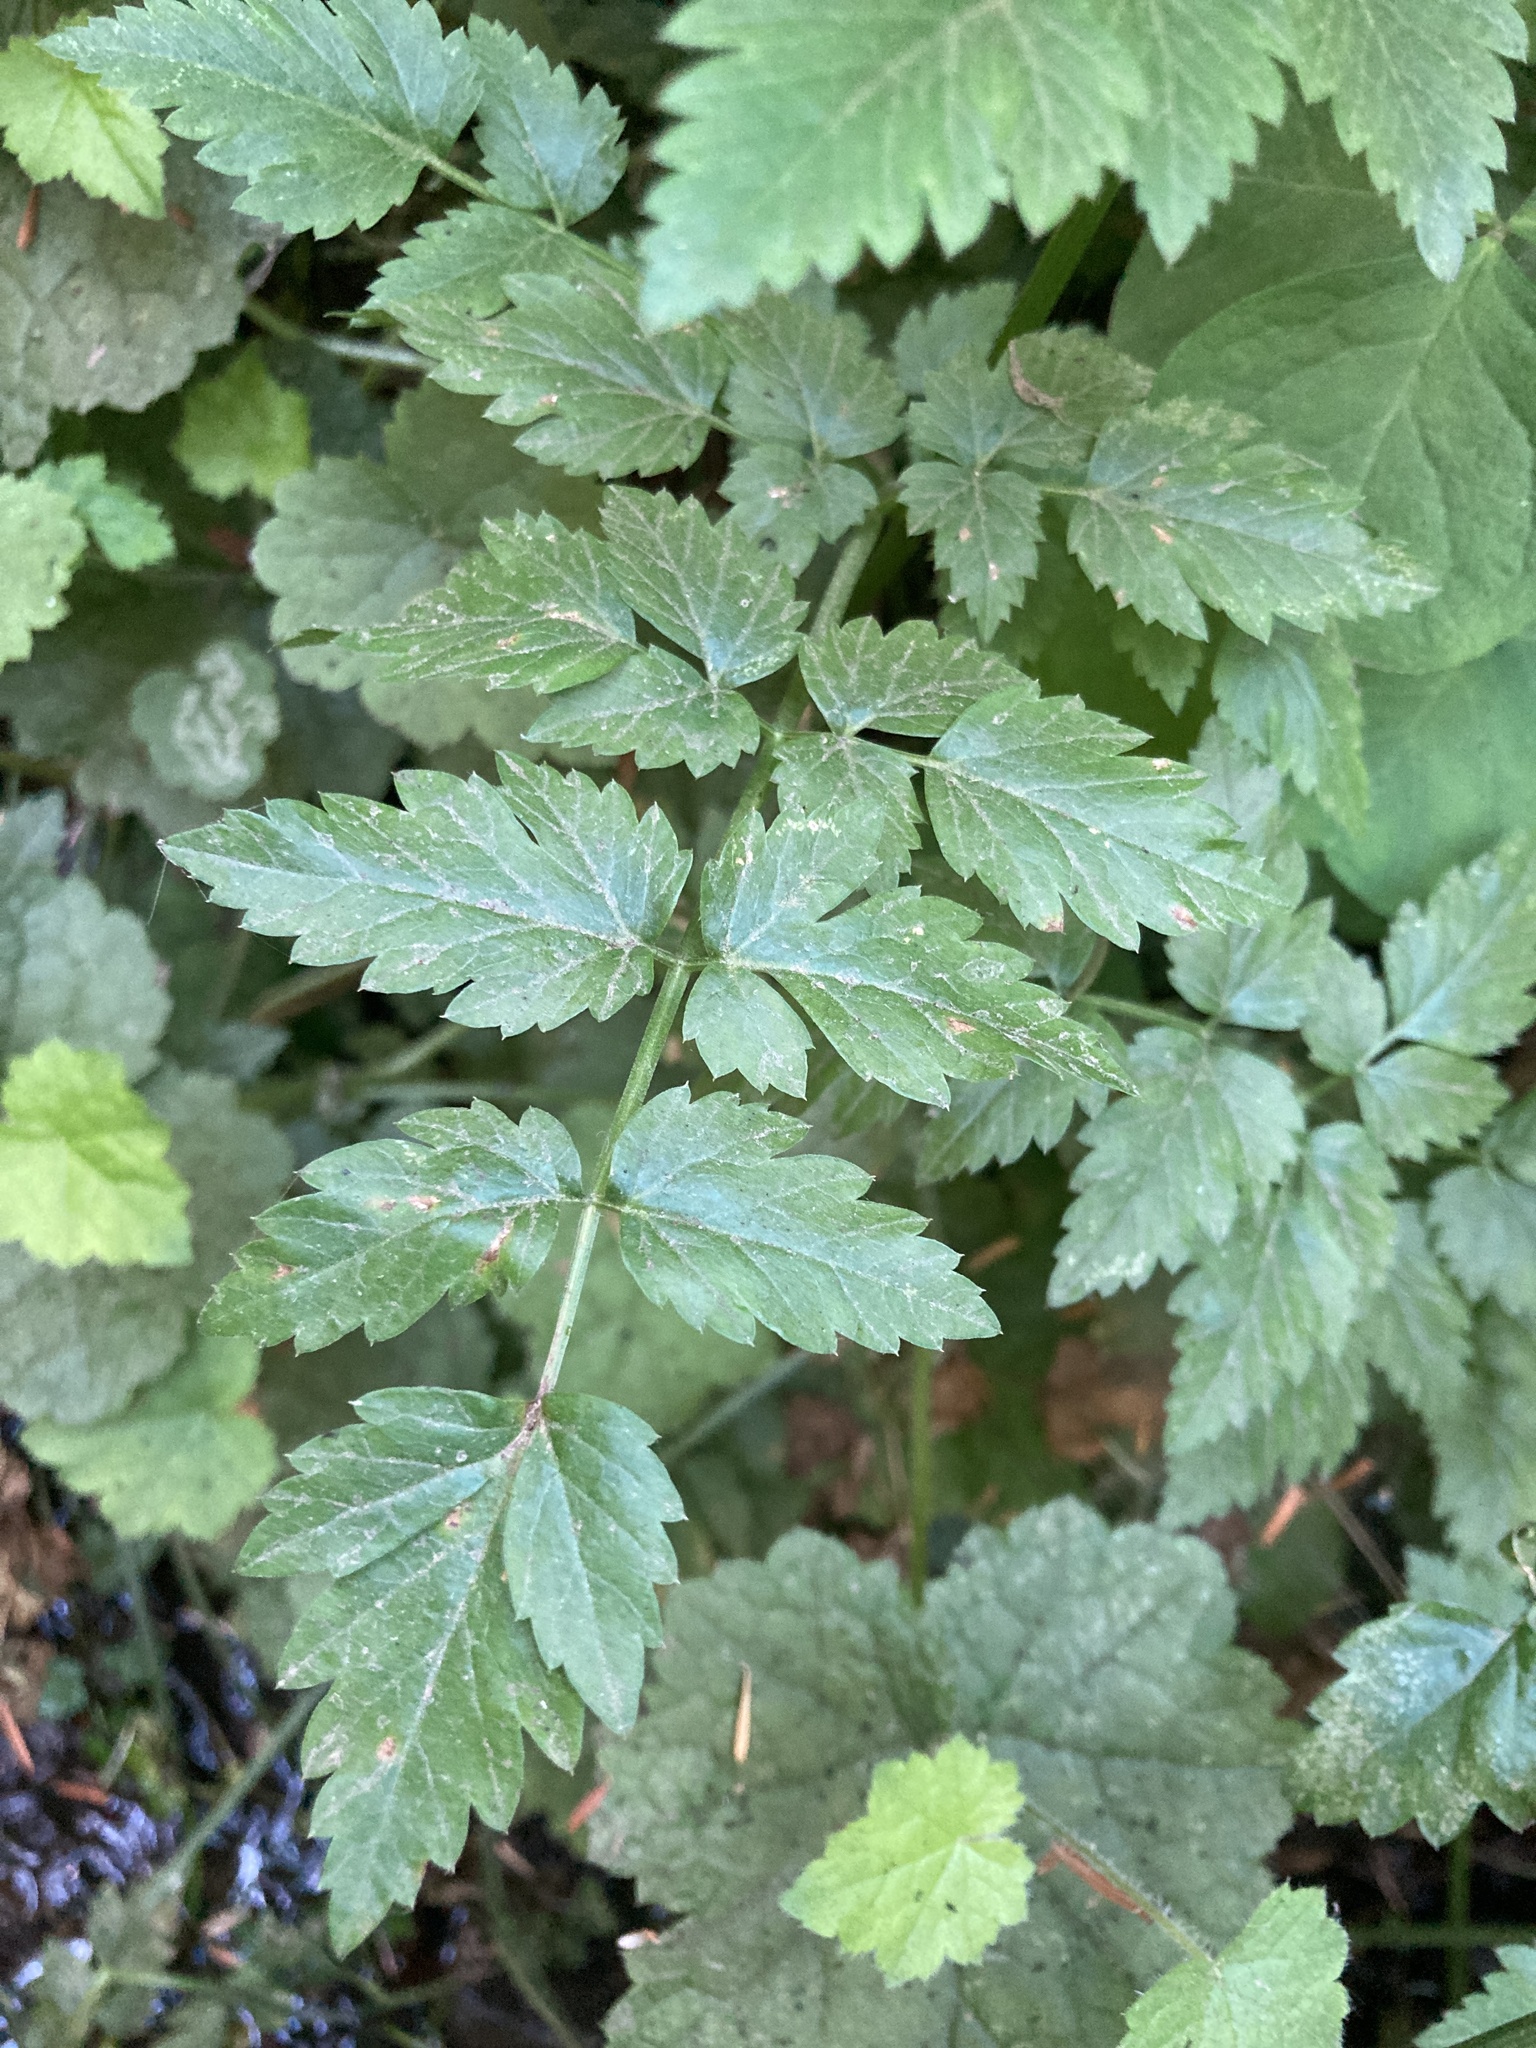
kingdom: Plantae
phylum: Tracheophyta
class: Magnoliopsida
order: Apiales
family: Apiaceae
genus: Oenanthe
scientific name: Oenanthe sarmentosa
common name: American water-parsley
